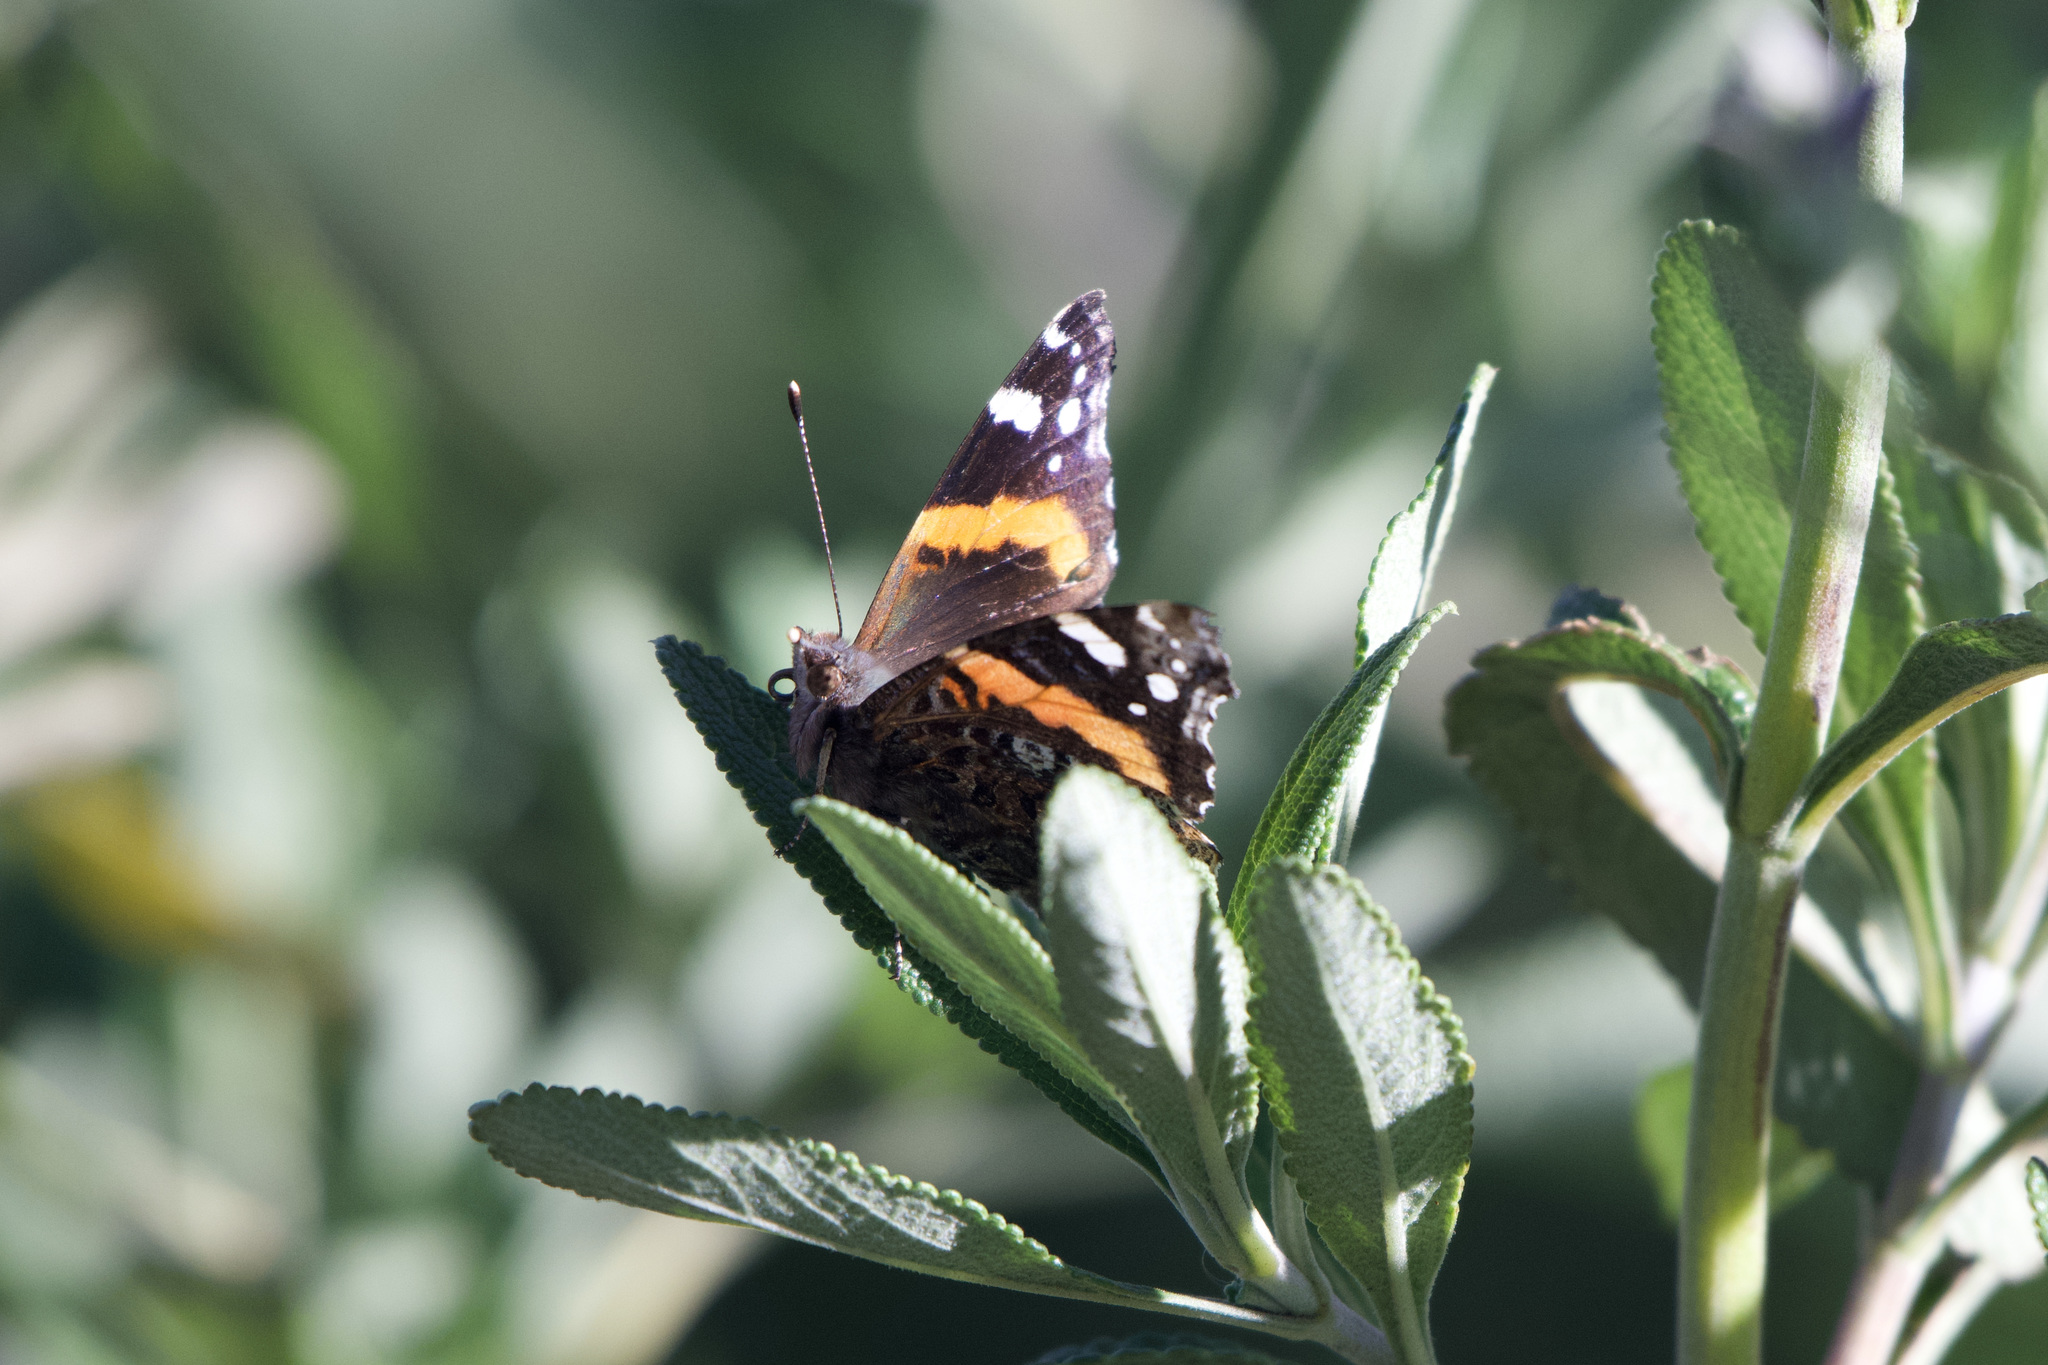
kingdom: Animalia
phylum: Arthropoda
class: Insecta
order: Lepidoptera
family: Nymphalidae
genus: Vanessa
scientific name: Vanessa atalanta
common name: Red admiral
